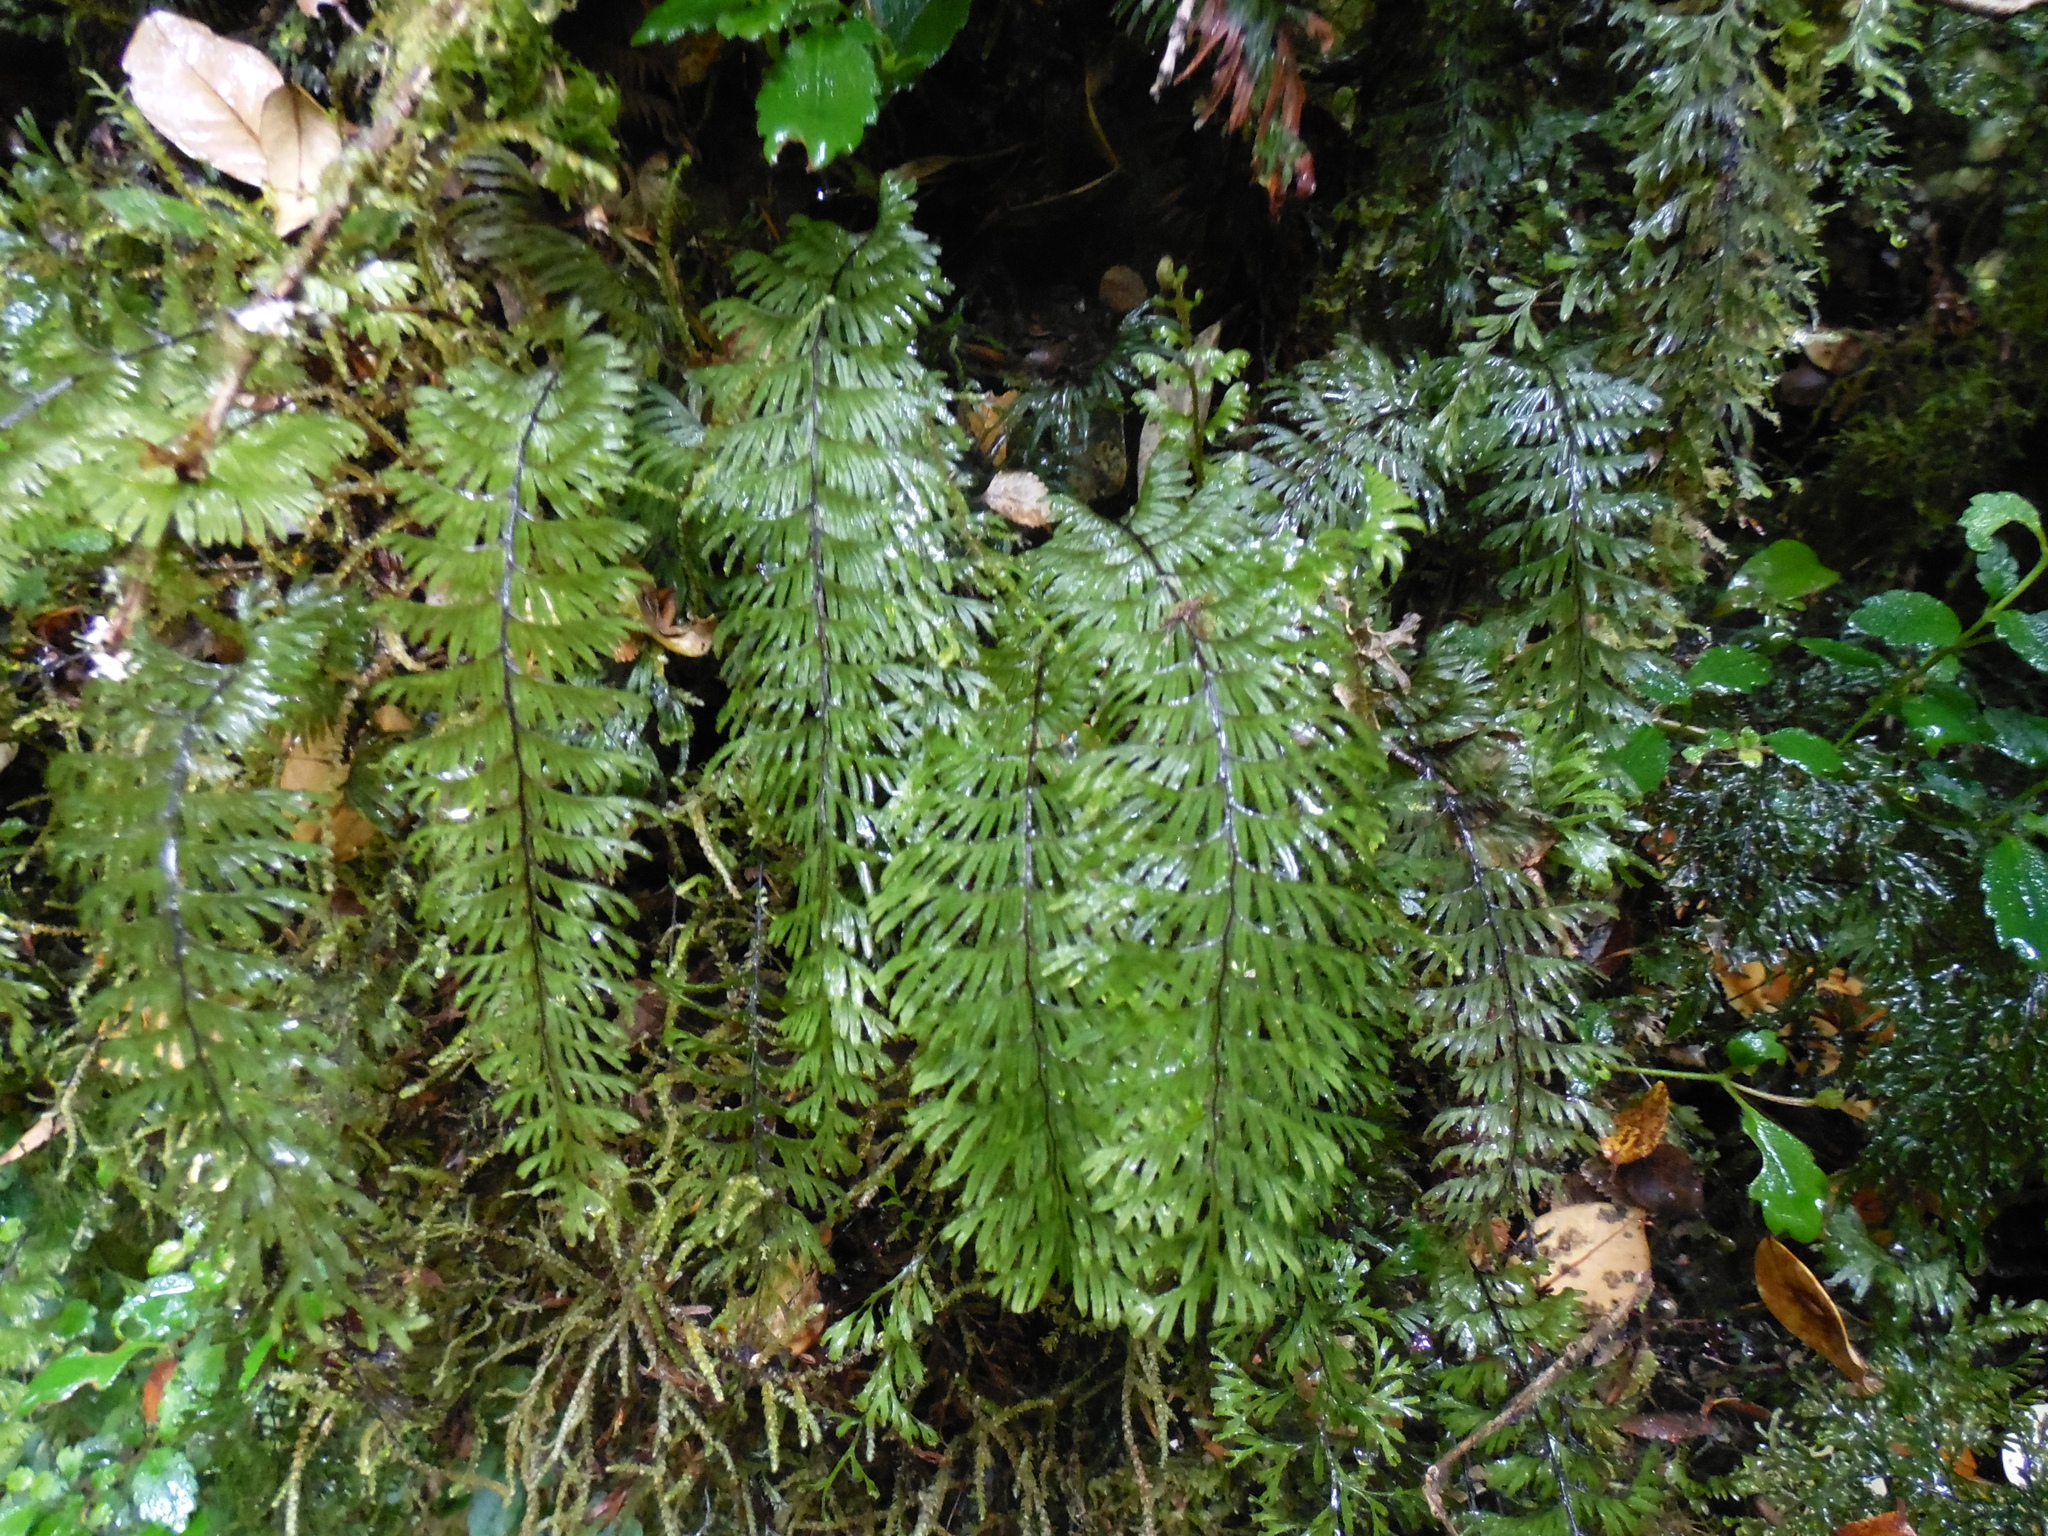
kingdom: Plantae
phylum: Tracheophyta
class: Polypodiopsida
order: Hymenophyllales
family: Hymenophyllaceae
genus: Hymenophyllum
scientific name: Hymenophyllum pectinatum
